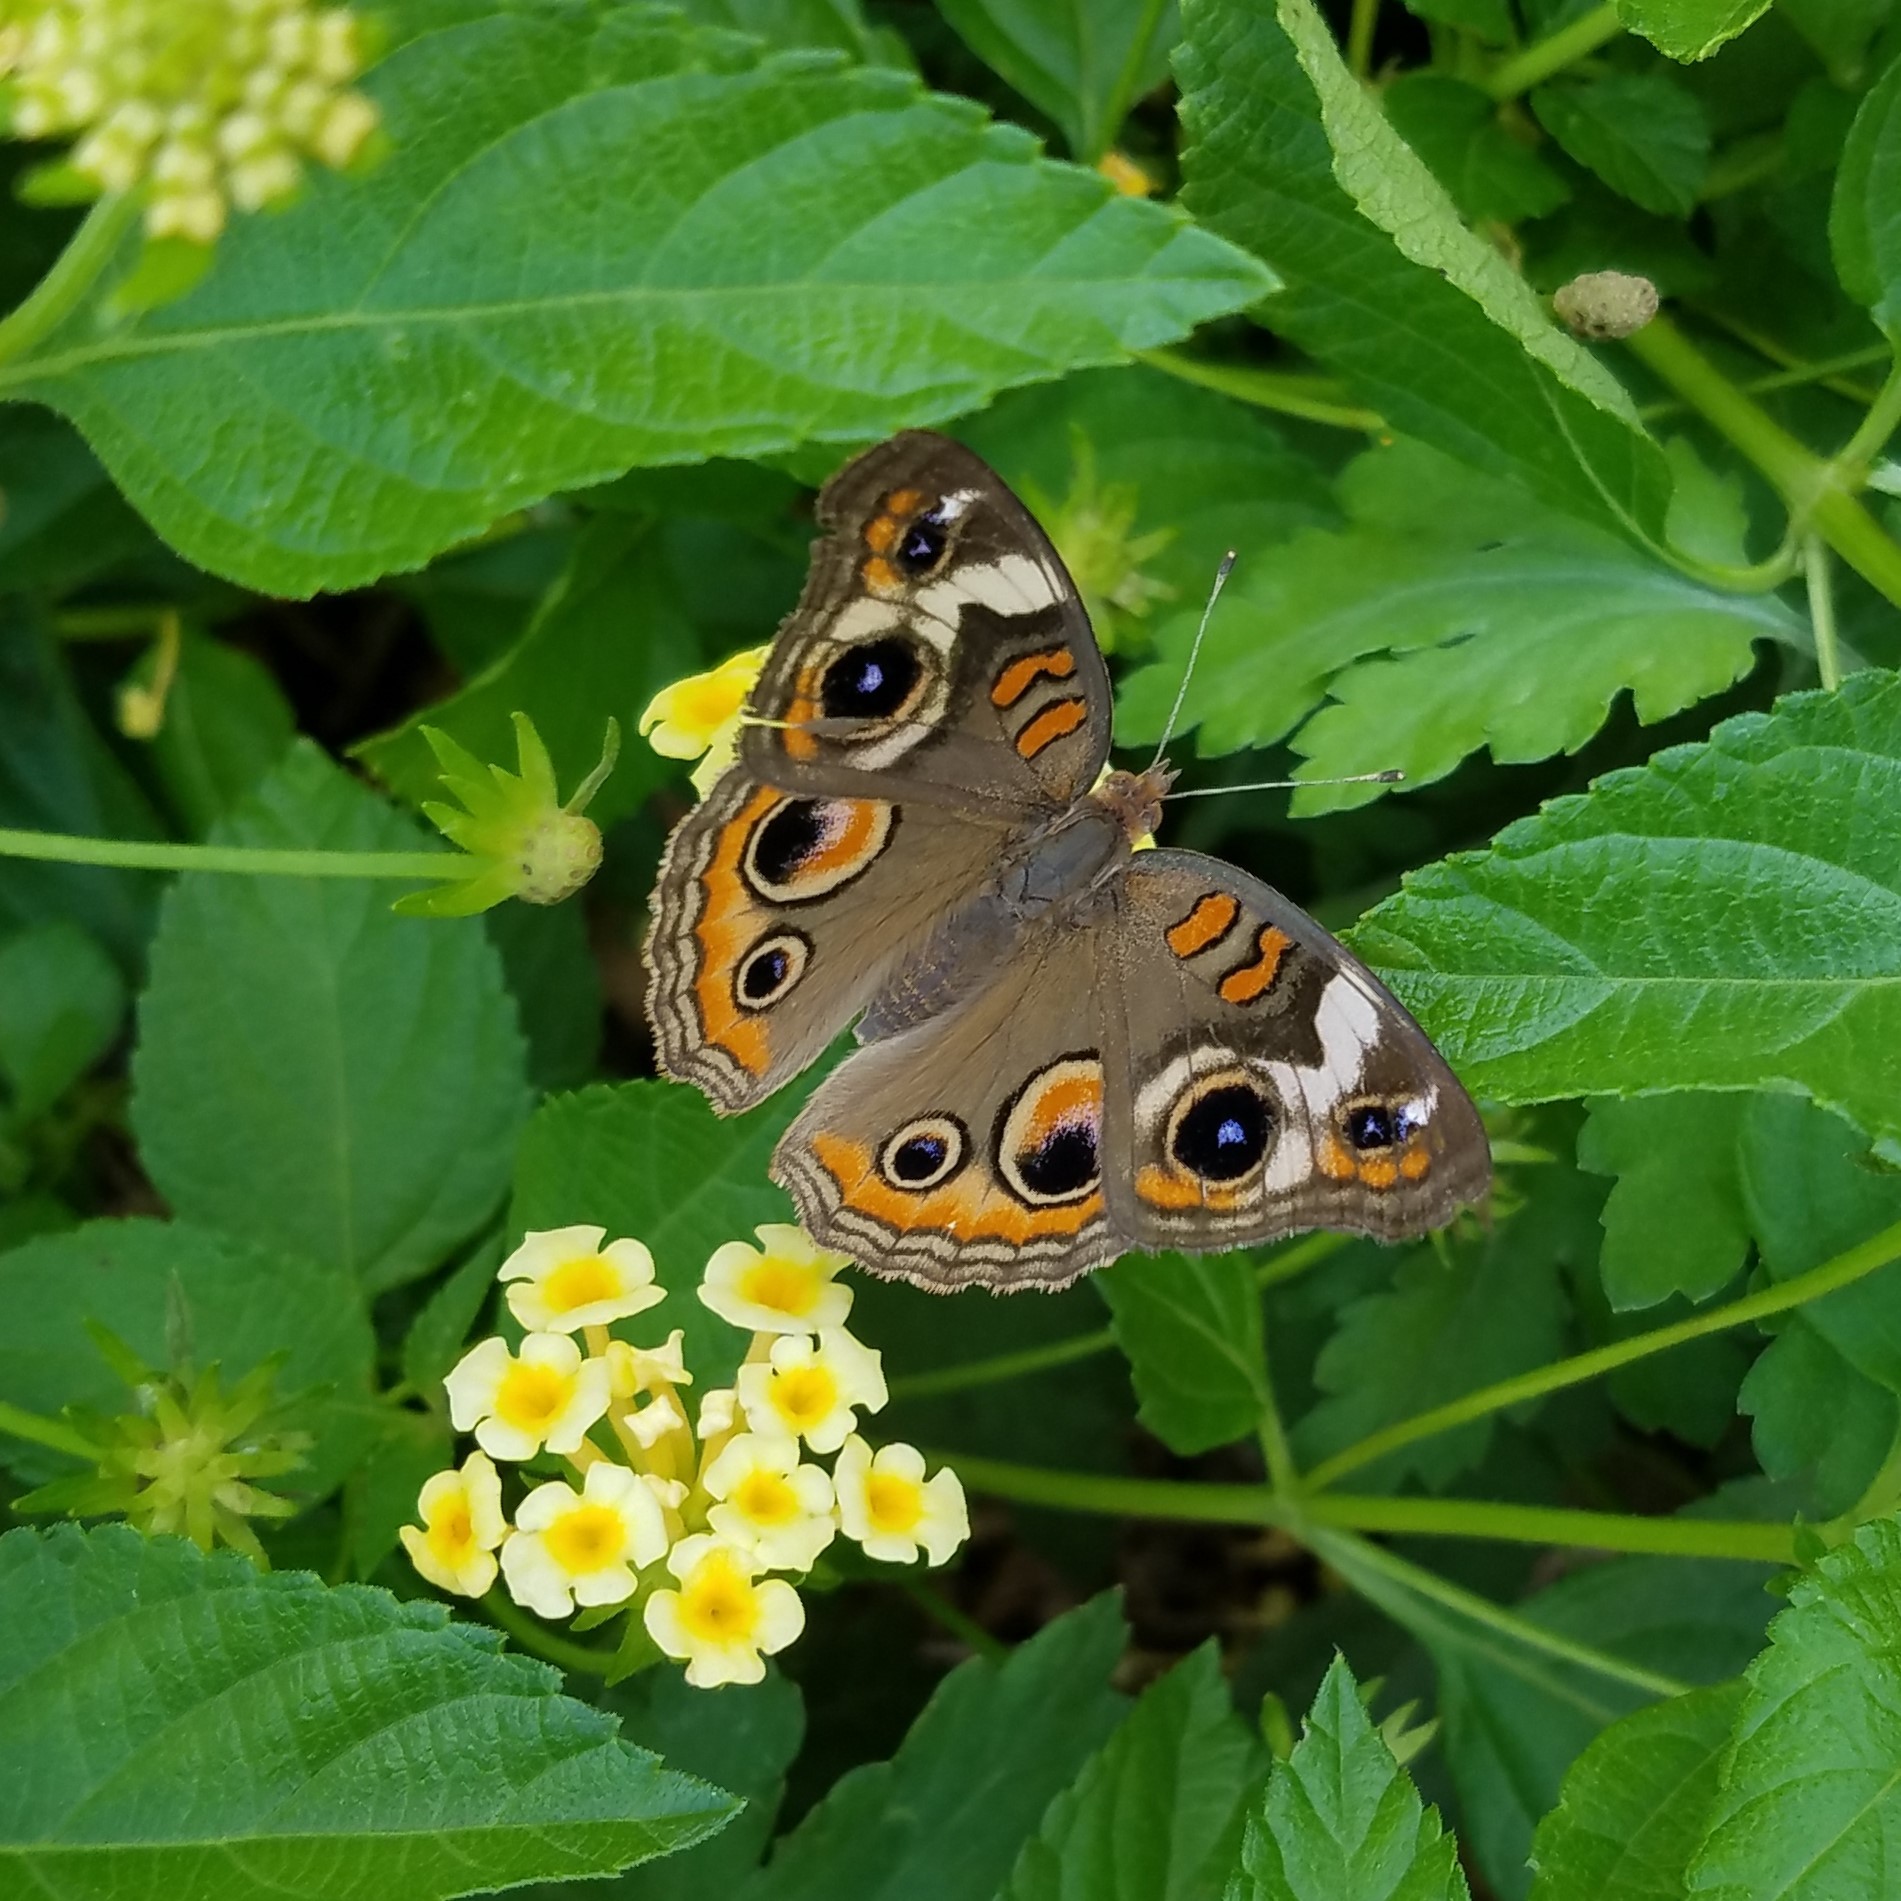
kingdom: Animalia
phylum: Arthropoda
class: Insecta
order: Lepidoptera
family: Nymphalidae
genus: Junonia
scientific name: Junonia coenia
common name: Common buckeye
